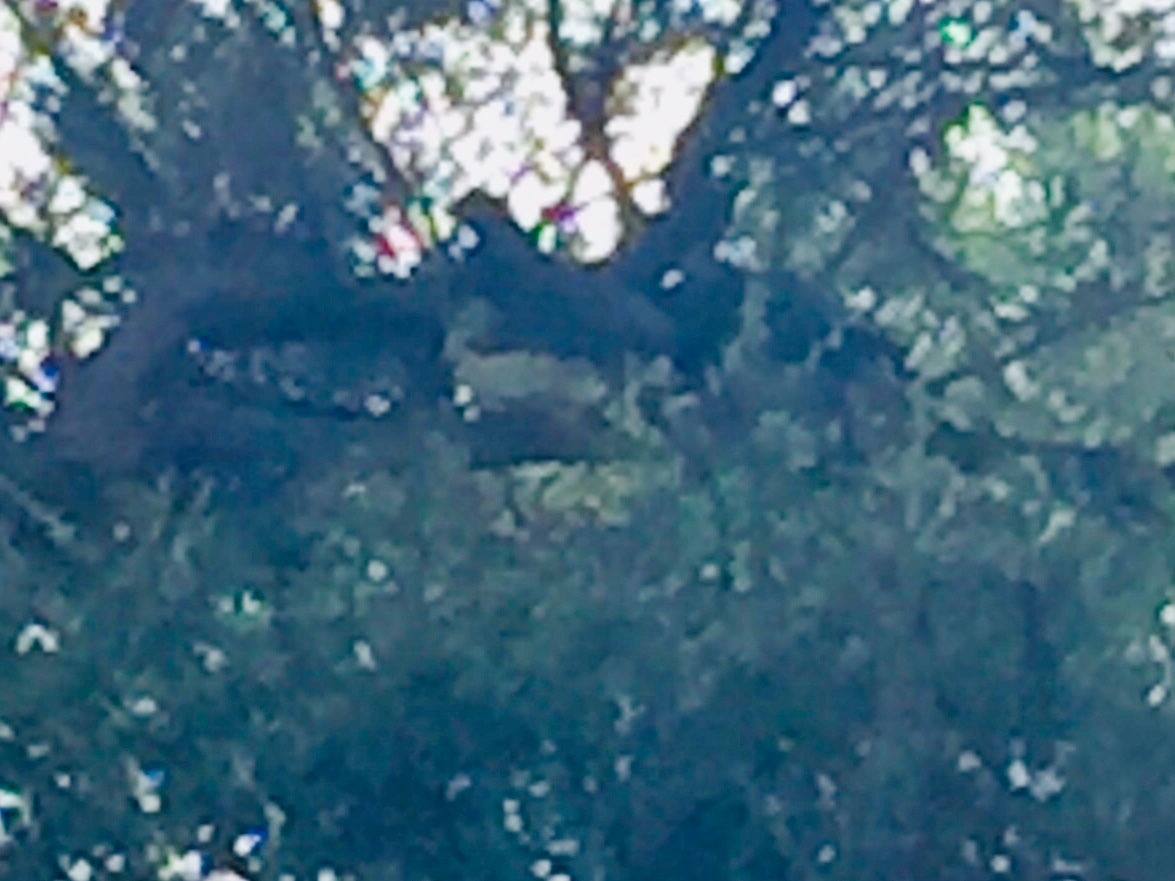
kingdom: Animalia
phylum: Chordata
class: Aves
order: Columbiformes
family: Columbidae
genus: Hemiphaga
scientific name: Hemiphaga novaeseelandiae
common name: New zealand pigeon
